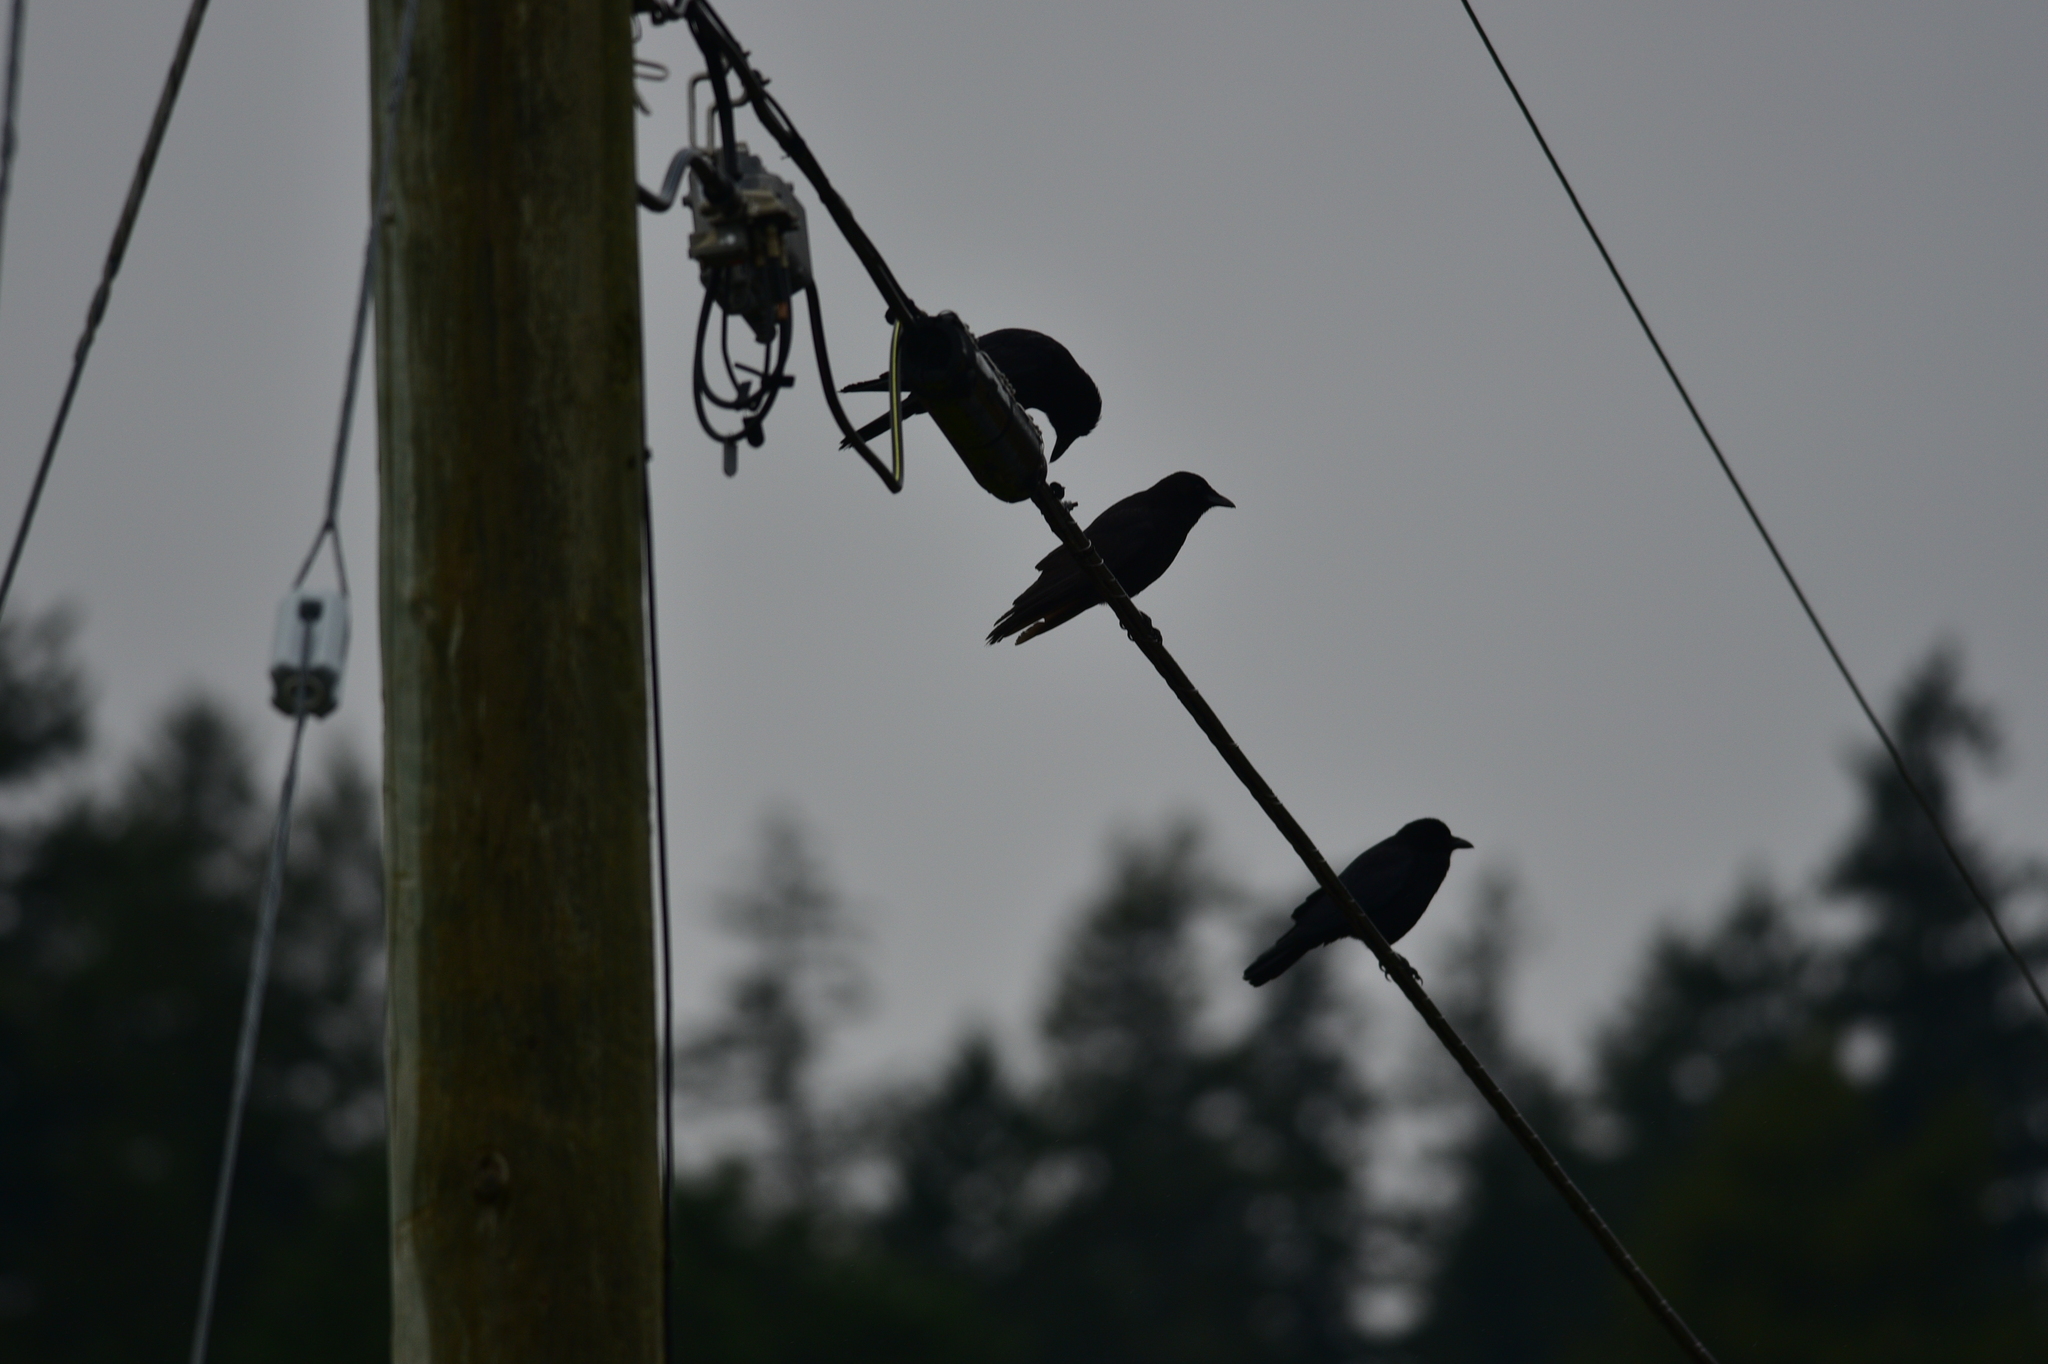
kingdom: Animalia
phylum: Chordata
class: Aves
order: Passeriformes
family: Corvidae
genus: Corvus
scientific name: Corvus brachyrhynchos
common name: American crow
